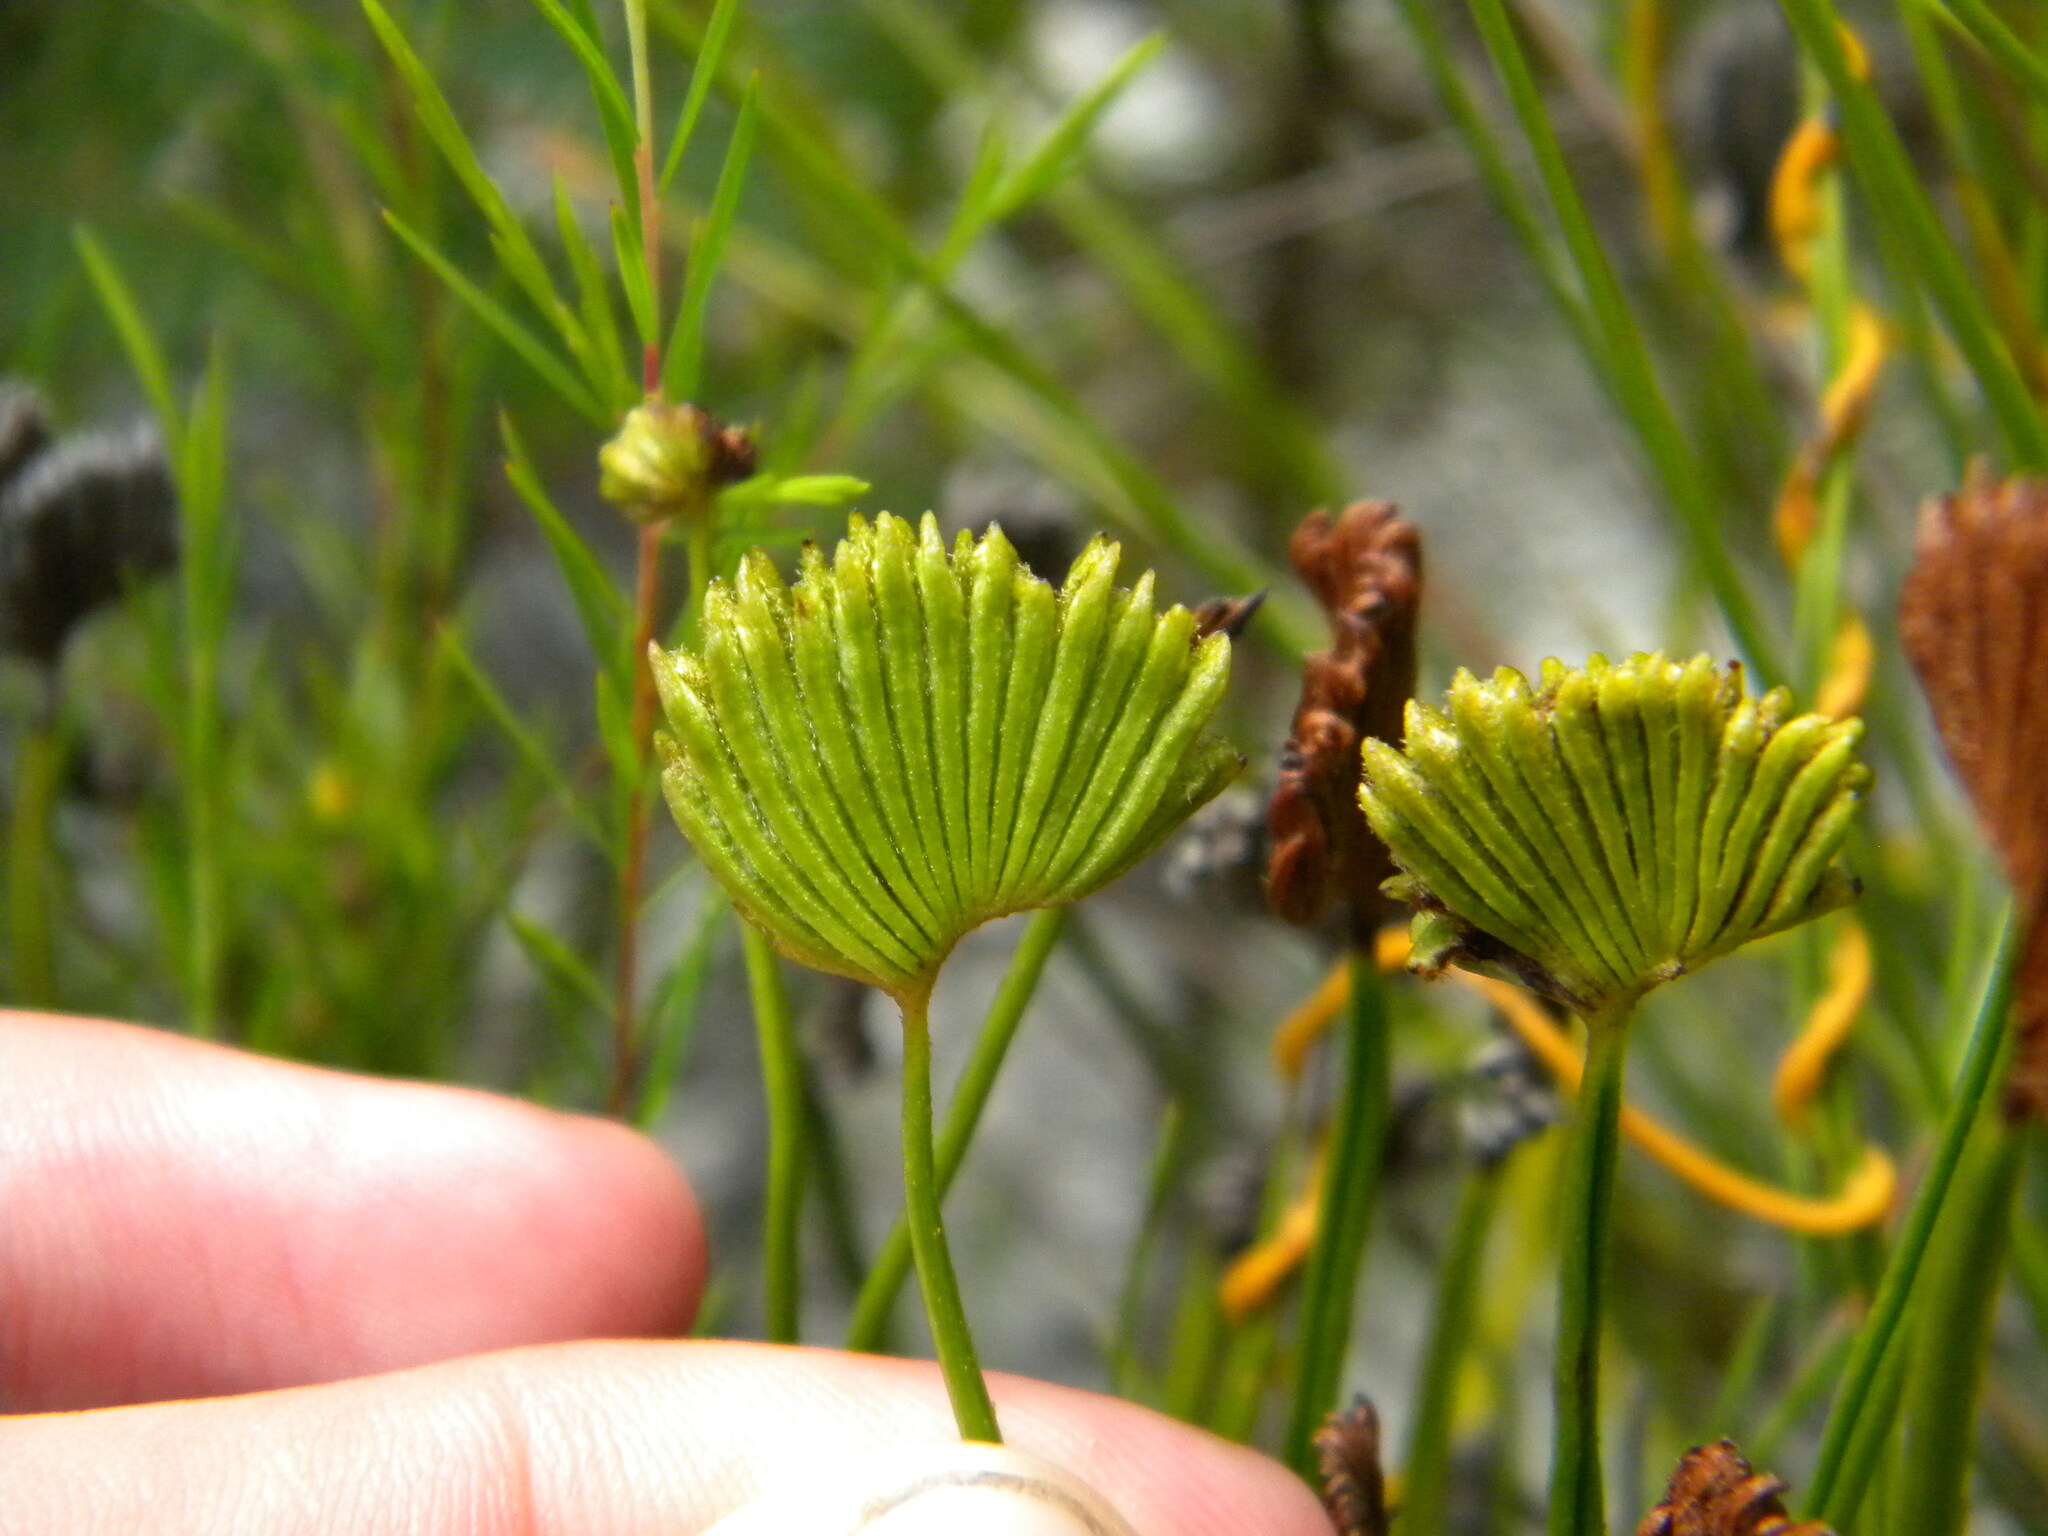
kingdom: Plantae
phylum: Tracheophyta
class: Polypodiopsida
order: Schizaeales
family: Schizaeaceae
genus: Schizaea
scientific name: Schizaea pectinata
